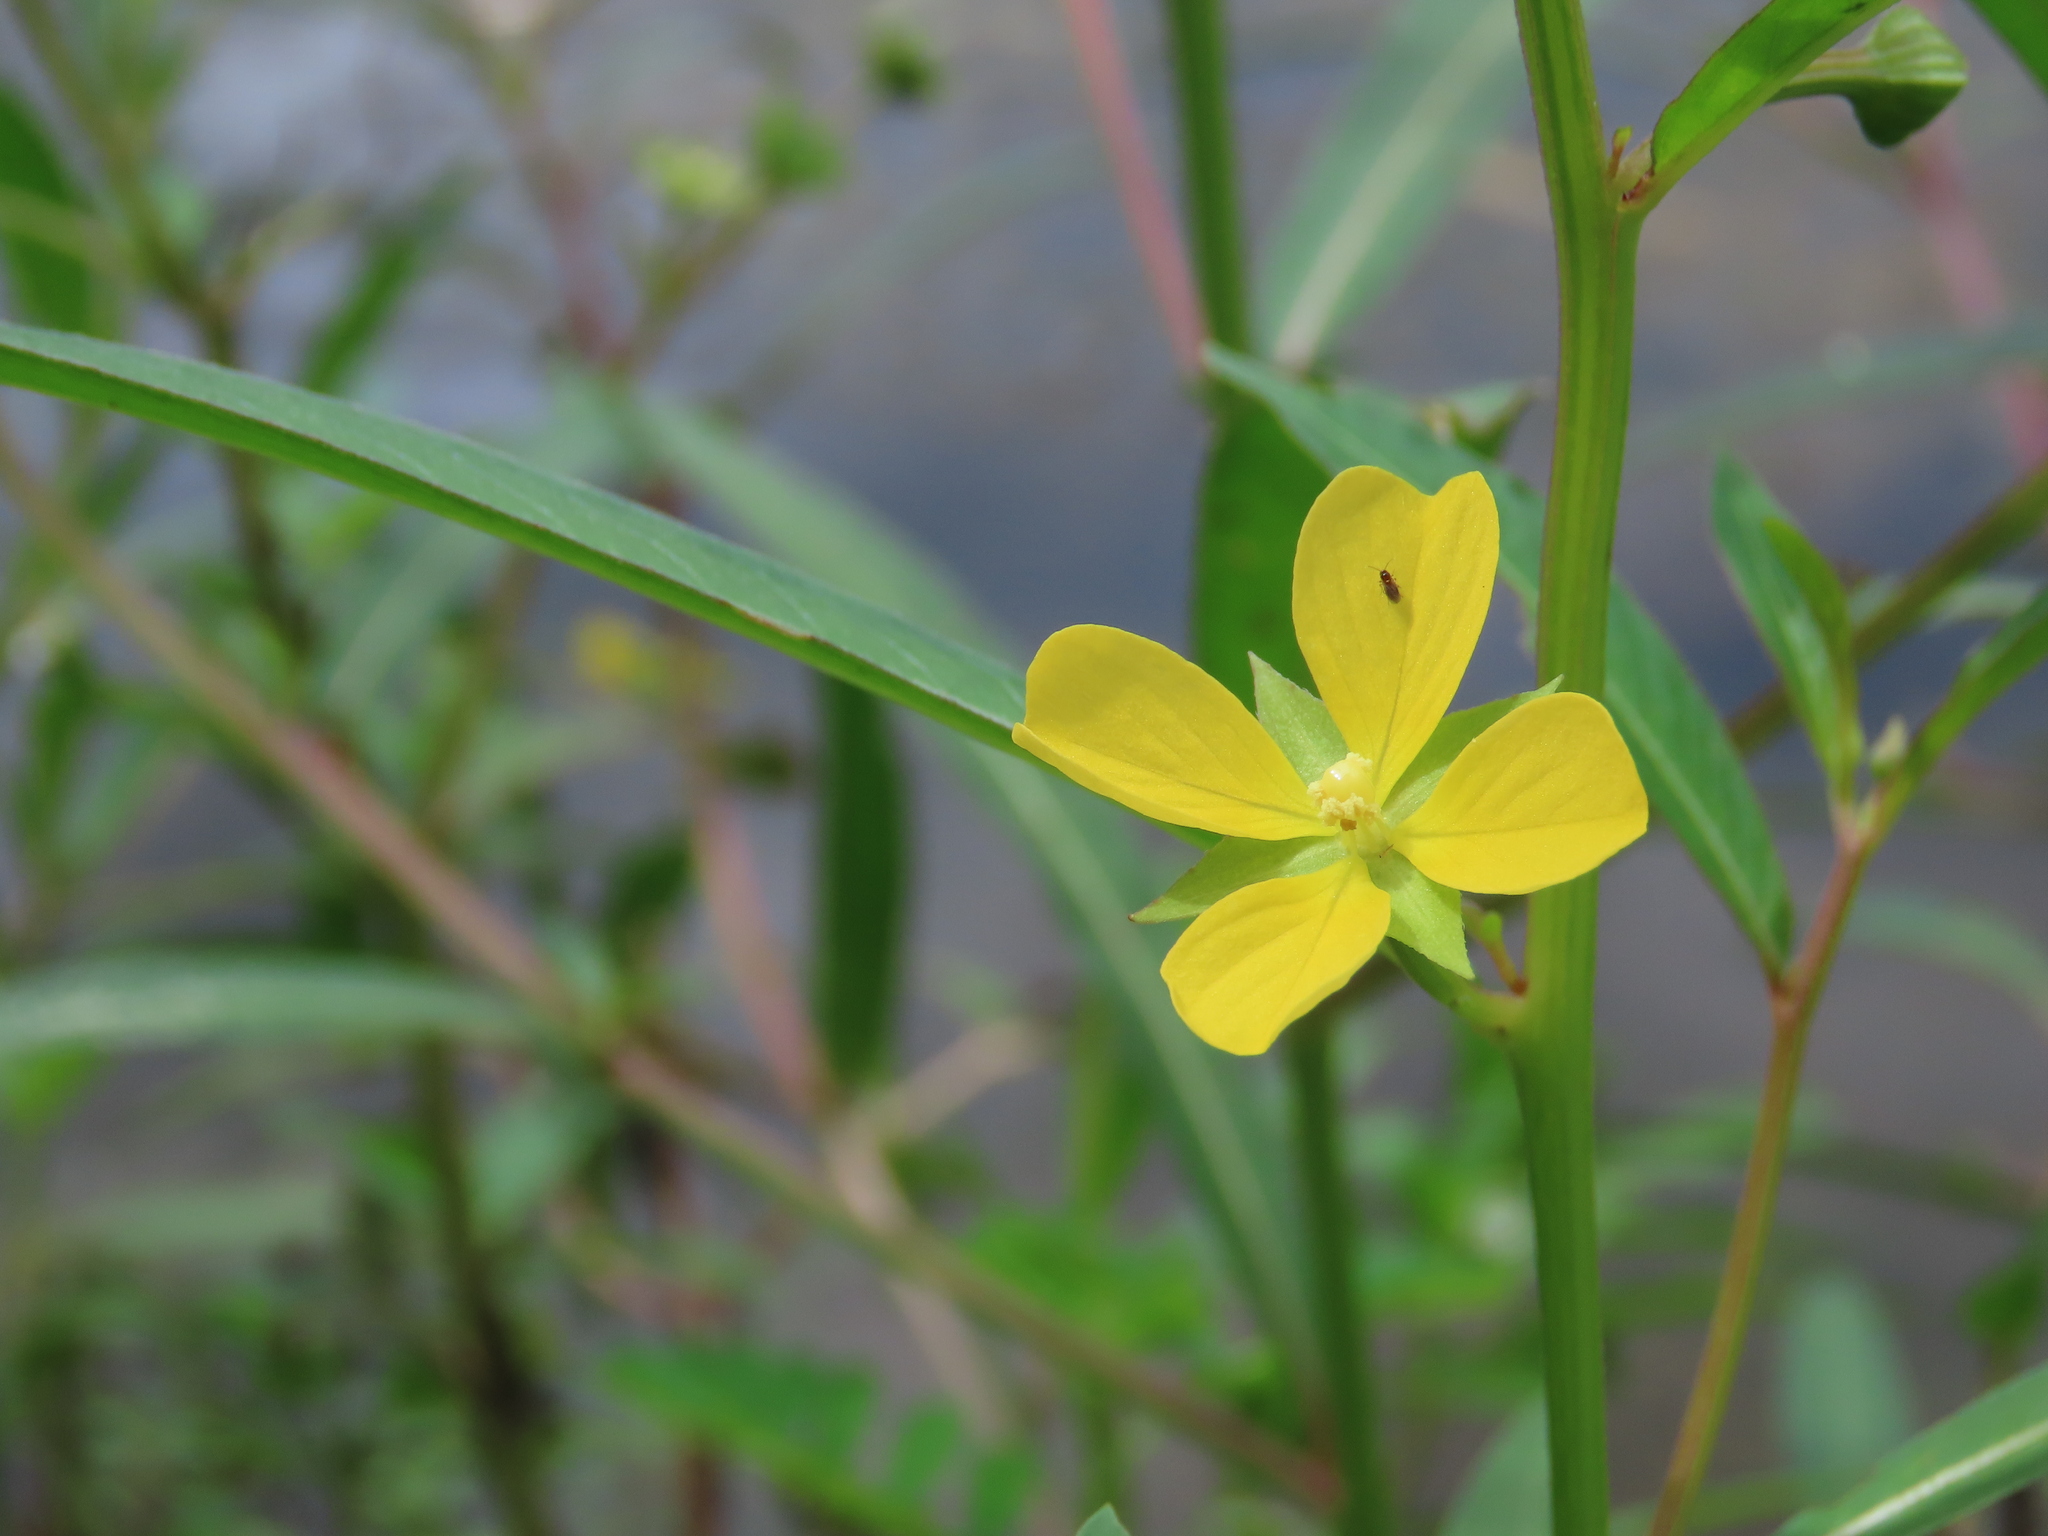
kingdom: Plantae
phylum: Tracheophyta
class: Magnoliopsida
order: Myrtales
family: Onagraceae
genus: Ludwigia
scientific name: Ludwigia decurrens
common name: Winged water-primrose
